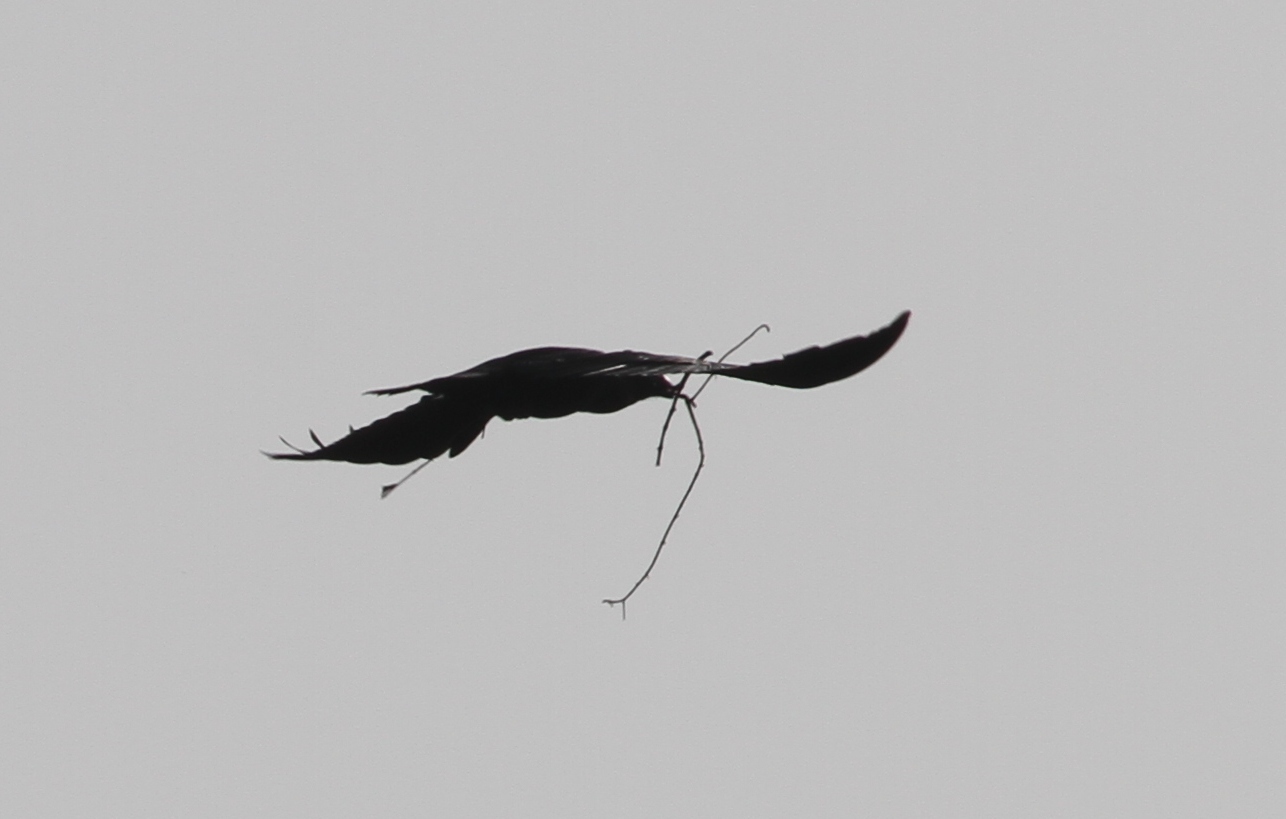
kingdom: Animalia
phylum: Chordata
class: Aves
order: Passeriformes
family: Corvidae
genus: Corvus
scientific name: Corvus corax
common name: Common raven
